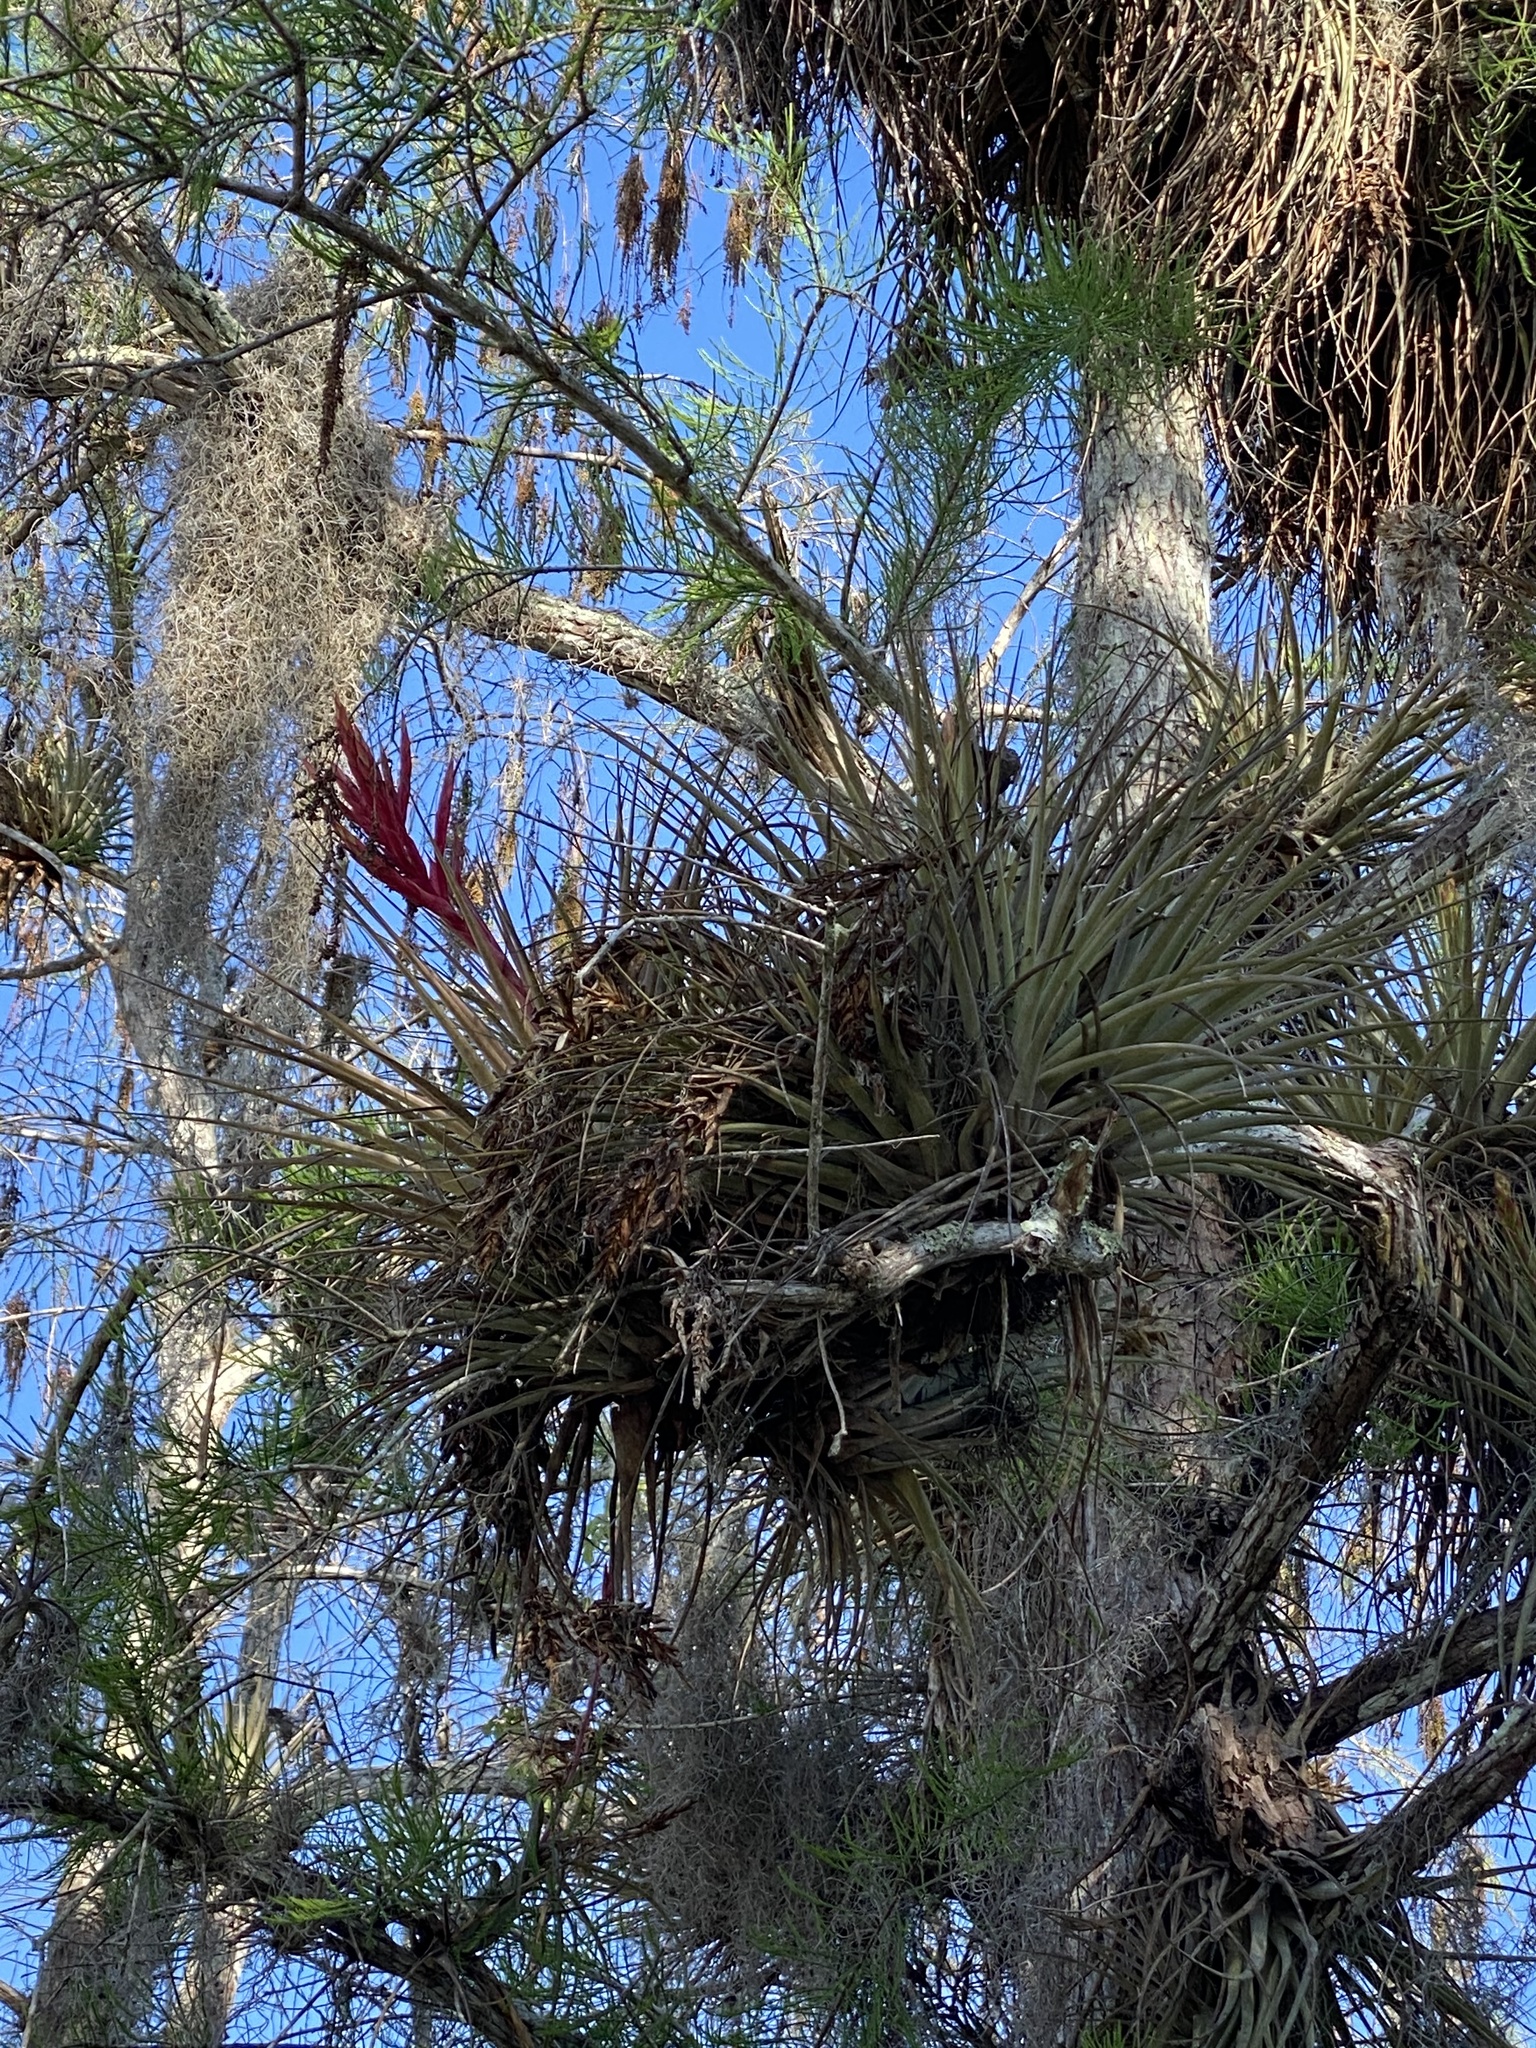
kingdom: Plantae
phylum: Tracheophyta
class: Liliopsida
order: Poales
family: Bromeliaceae
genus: Tillandsia
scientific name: Tillandsia fasciculata
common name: Giant airplant
